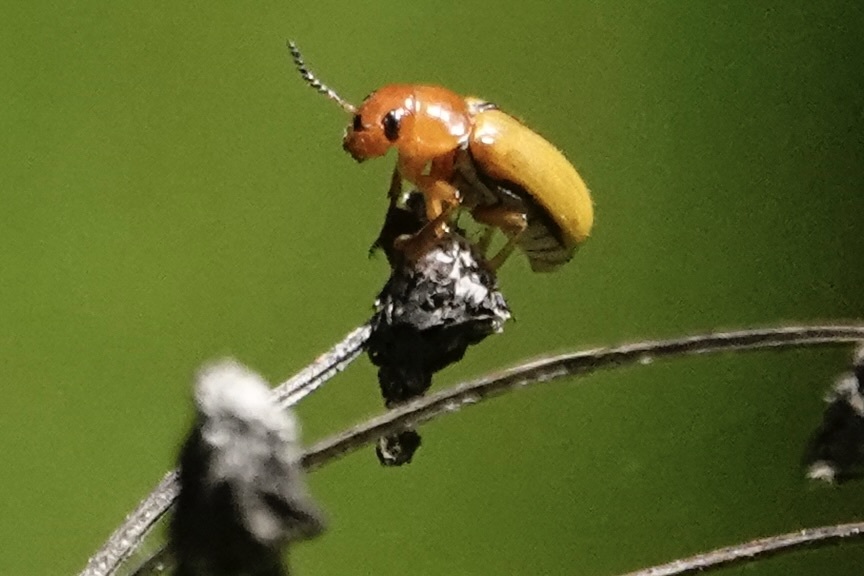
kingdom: Animalia
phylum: Arthropoda
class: Insecta
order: Coleoptera
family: Chrysomelidae
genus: Anomoea
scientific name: Anomoea laticlavia
